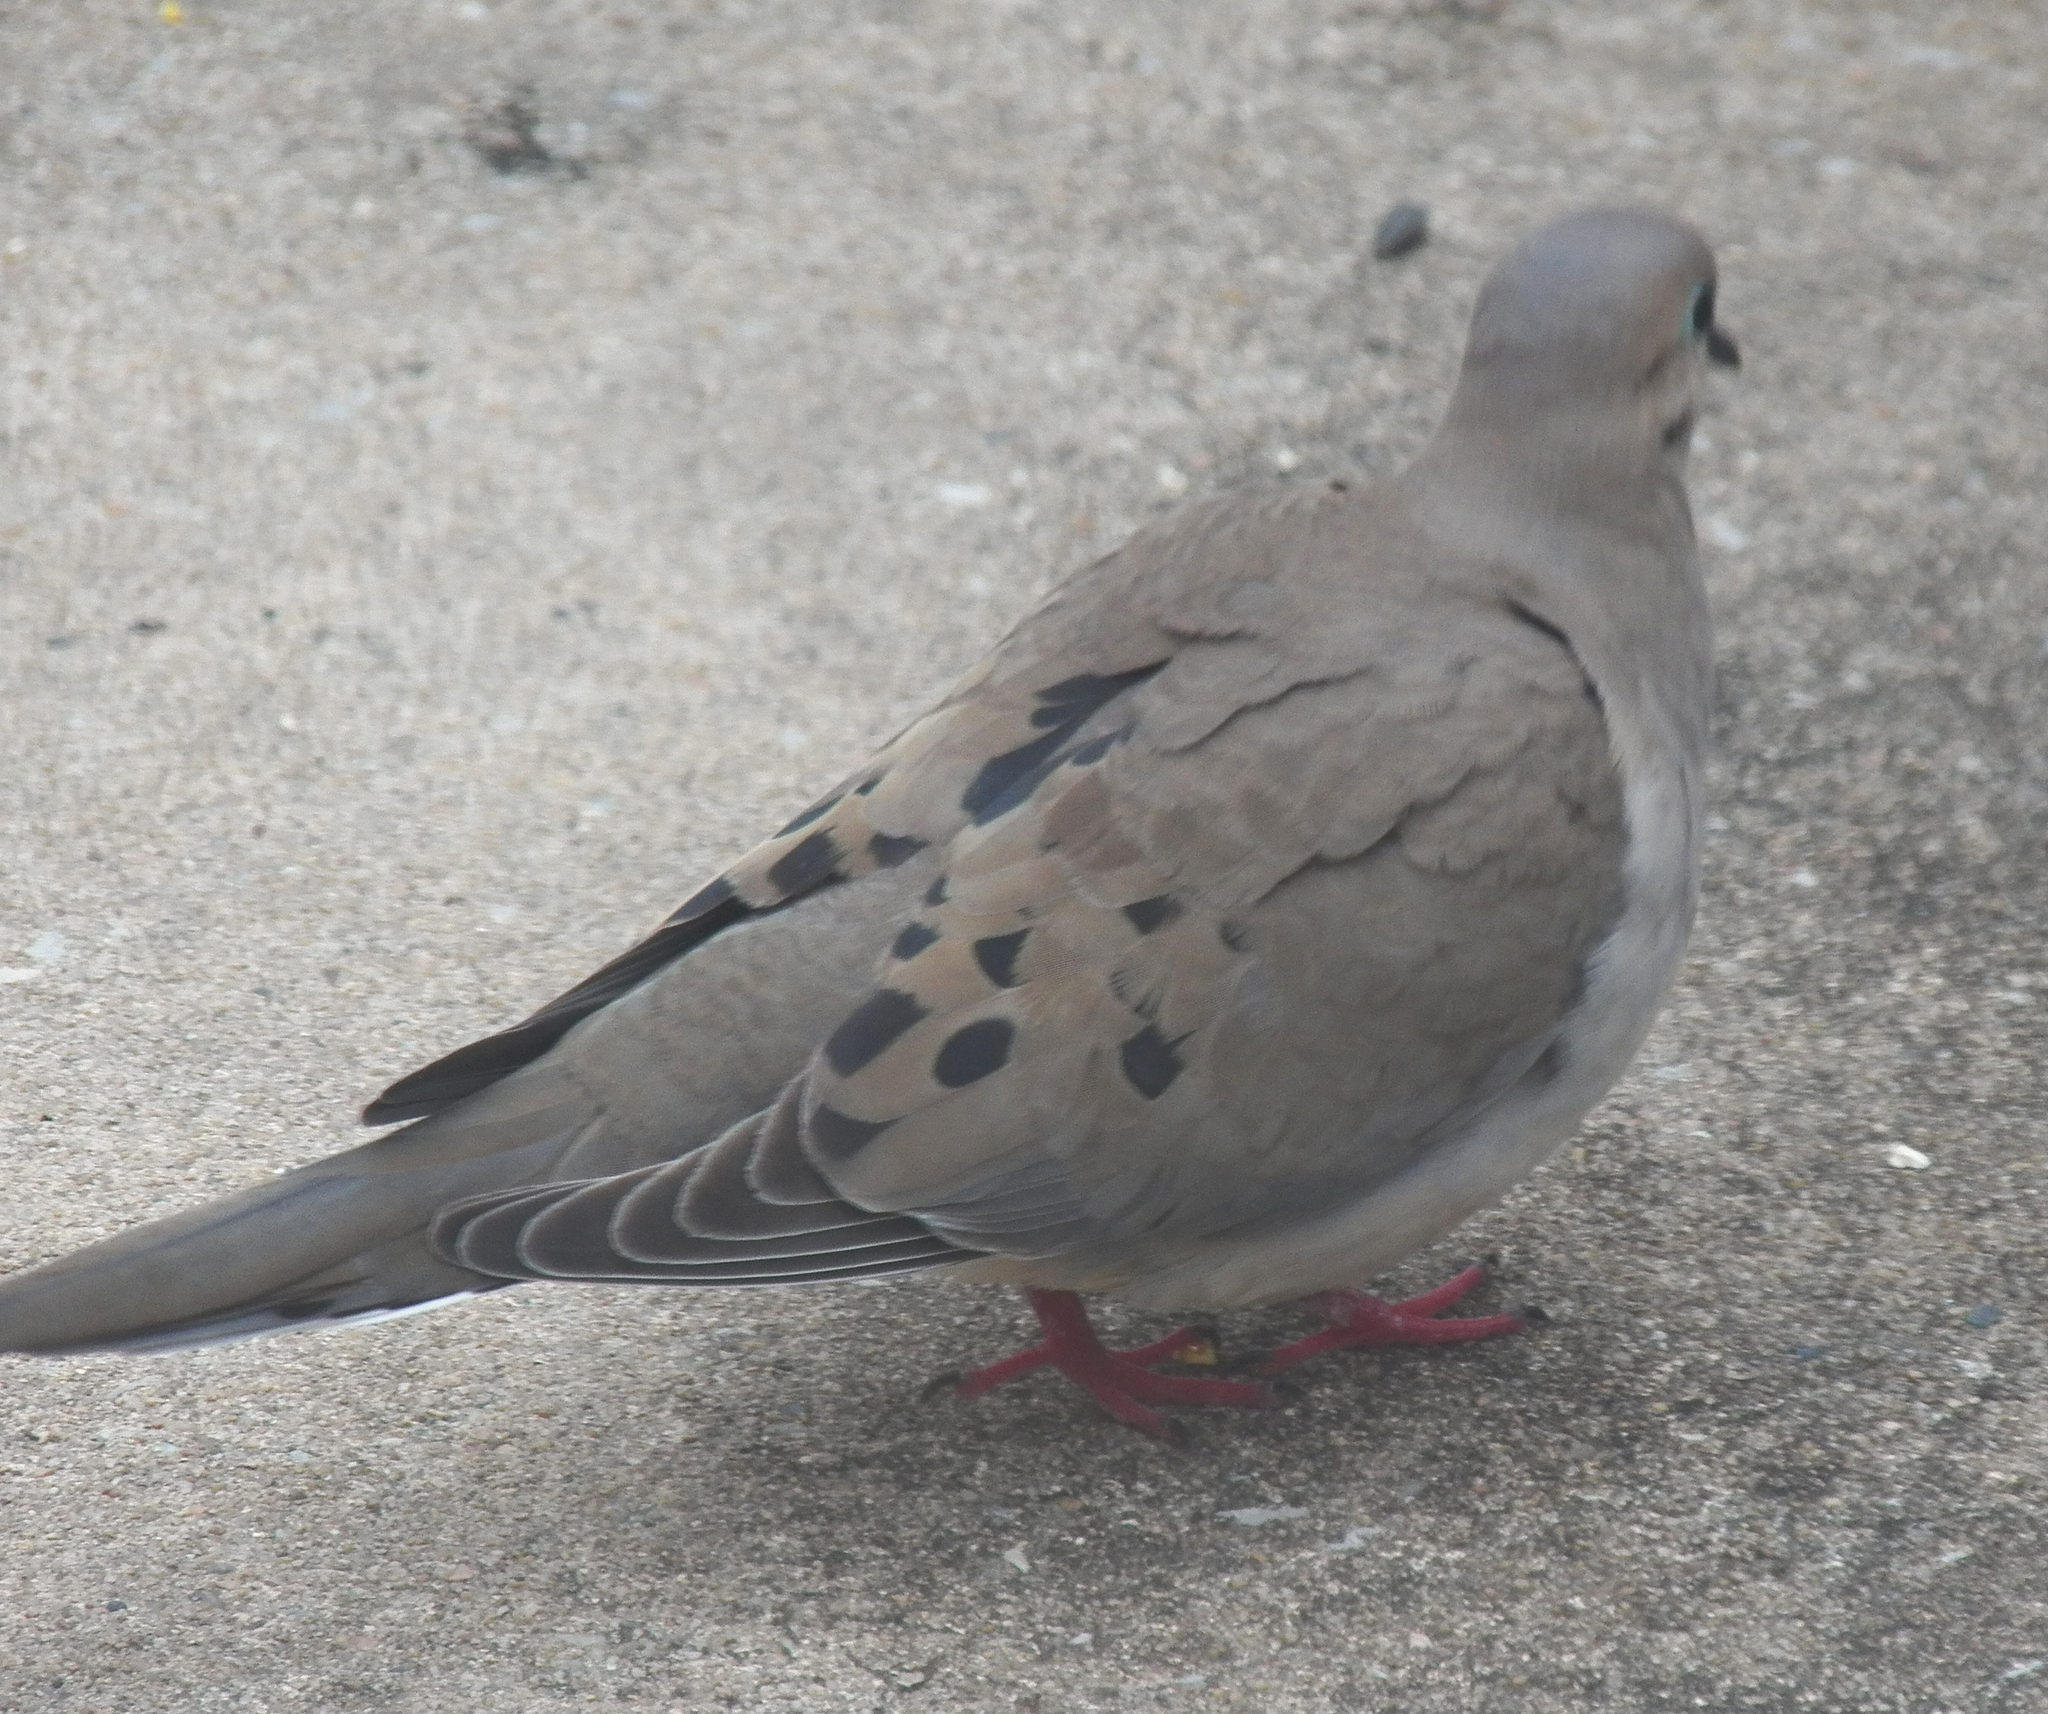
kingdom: Animalia
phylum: Chordata
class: Aves
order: Columbiformes
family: Columbidae
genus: Zenaida
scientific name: Zenaida macroura
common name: Mourning dove
